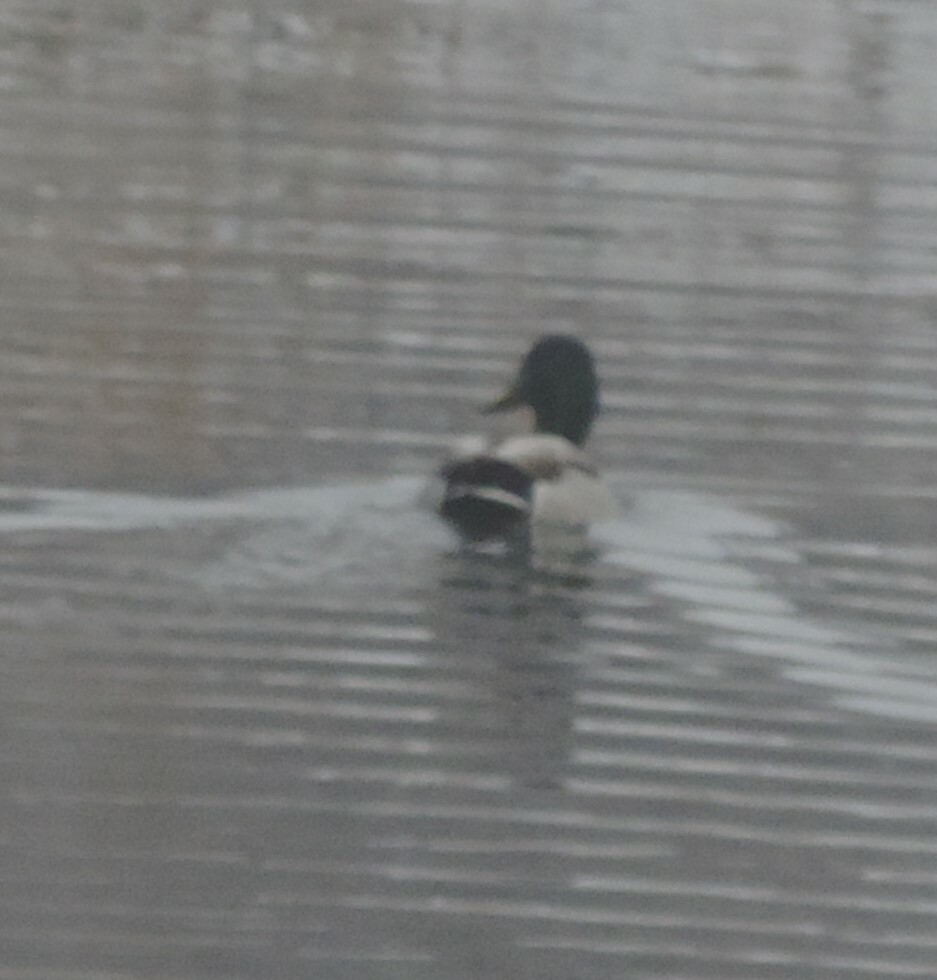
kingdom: Animalia
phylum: Chordata
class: Aves
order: Anseriformes
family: Anatidae
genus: Anas
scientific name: Anas platyrhynchos
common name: Mallard
